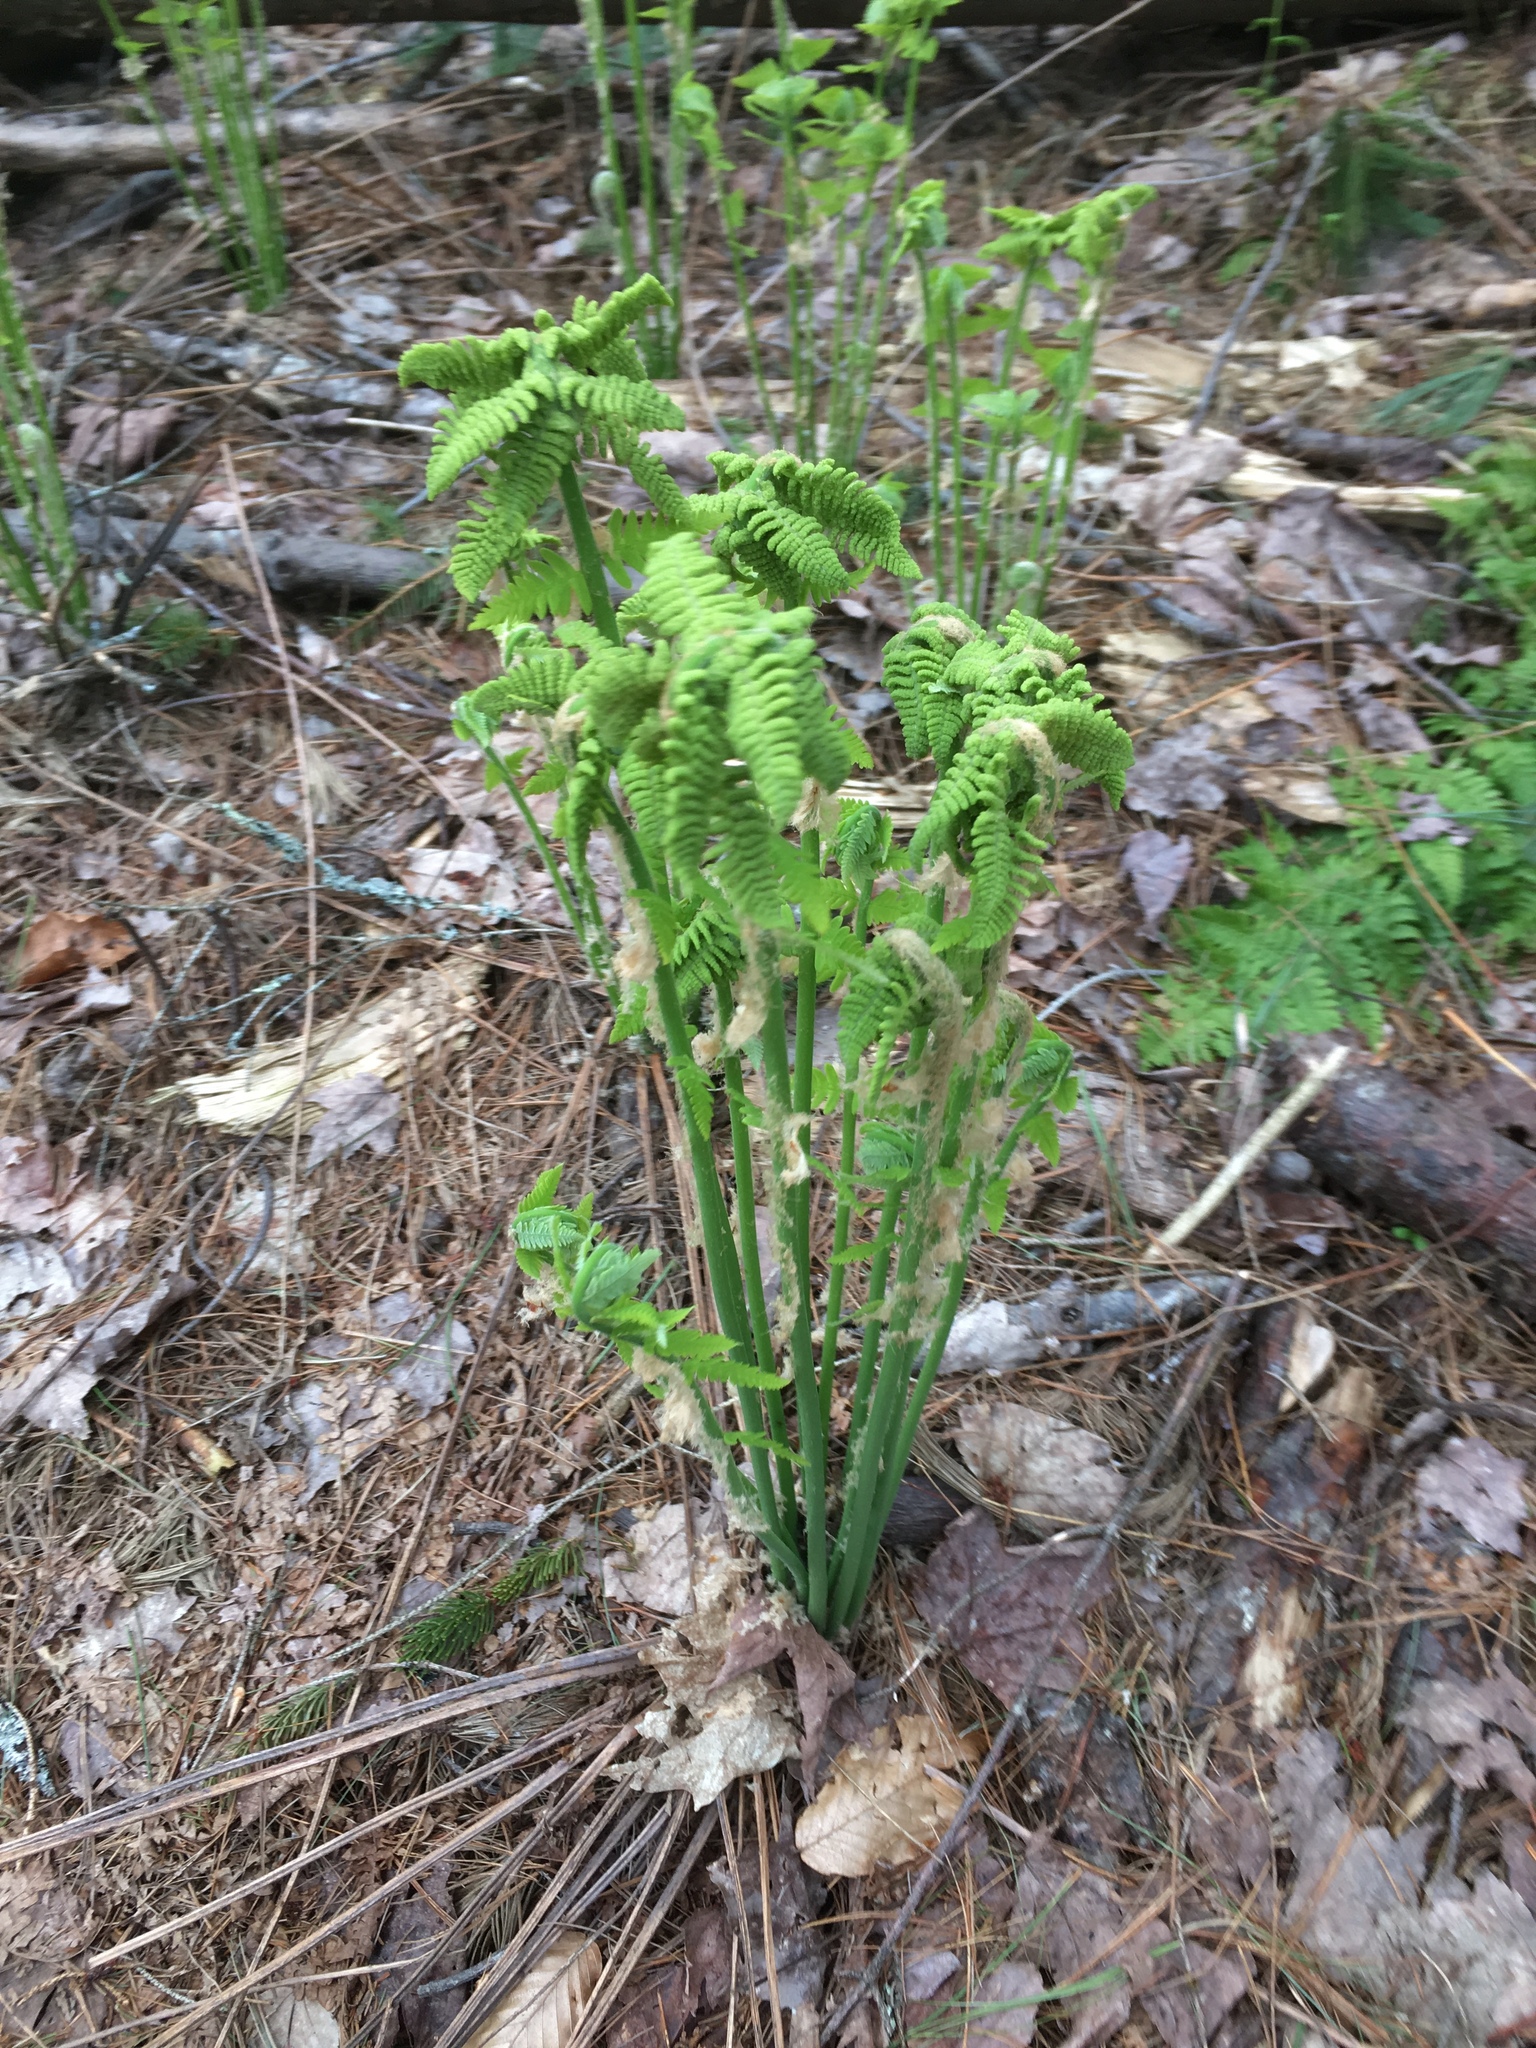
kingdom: Plantae
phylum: Tracheophyta
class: Polypodiopsida
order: Osmundales
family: Osmundaceae
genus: Claytosmunda
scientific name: Claytosmunda claytoniana
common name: Clayton's fern
